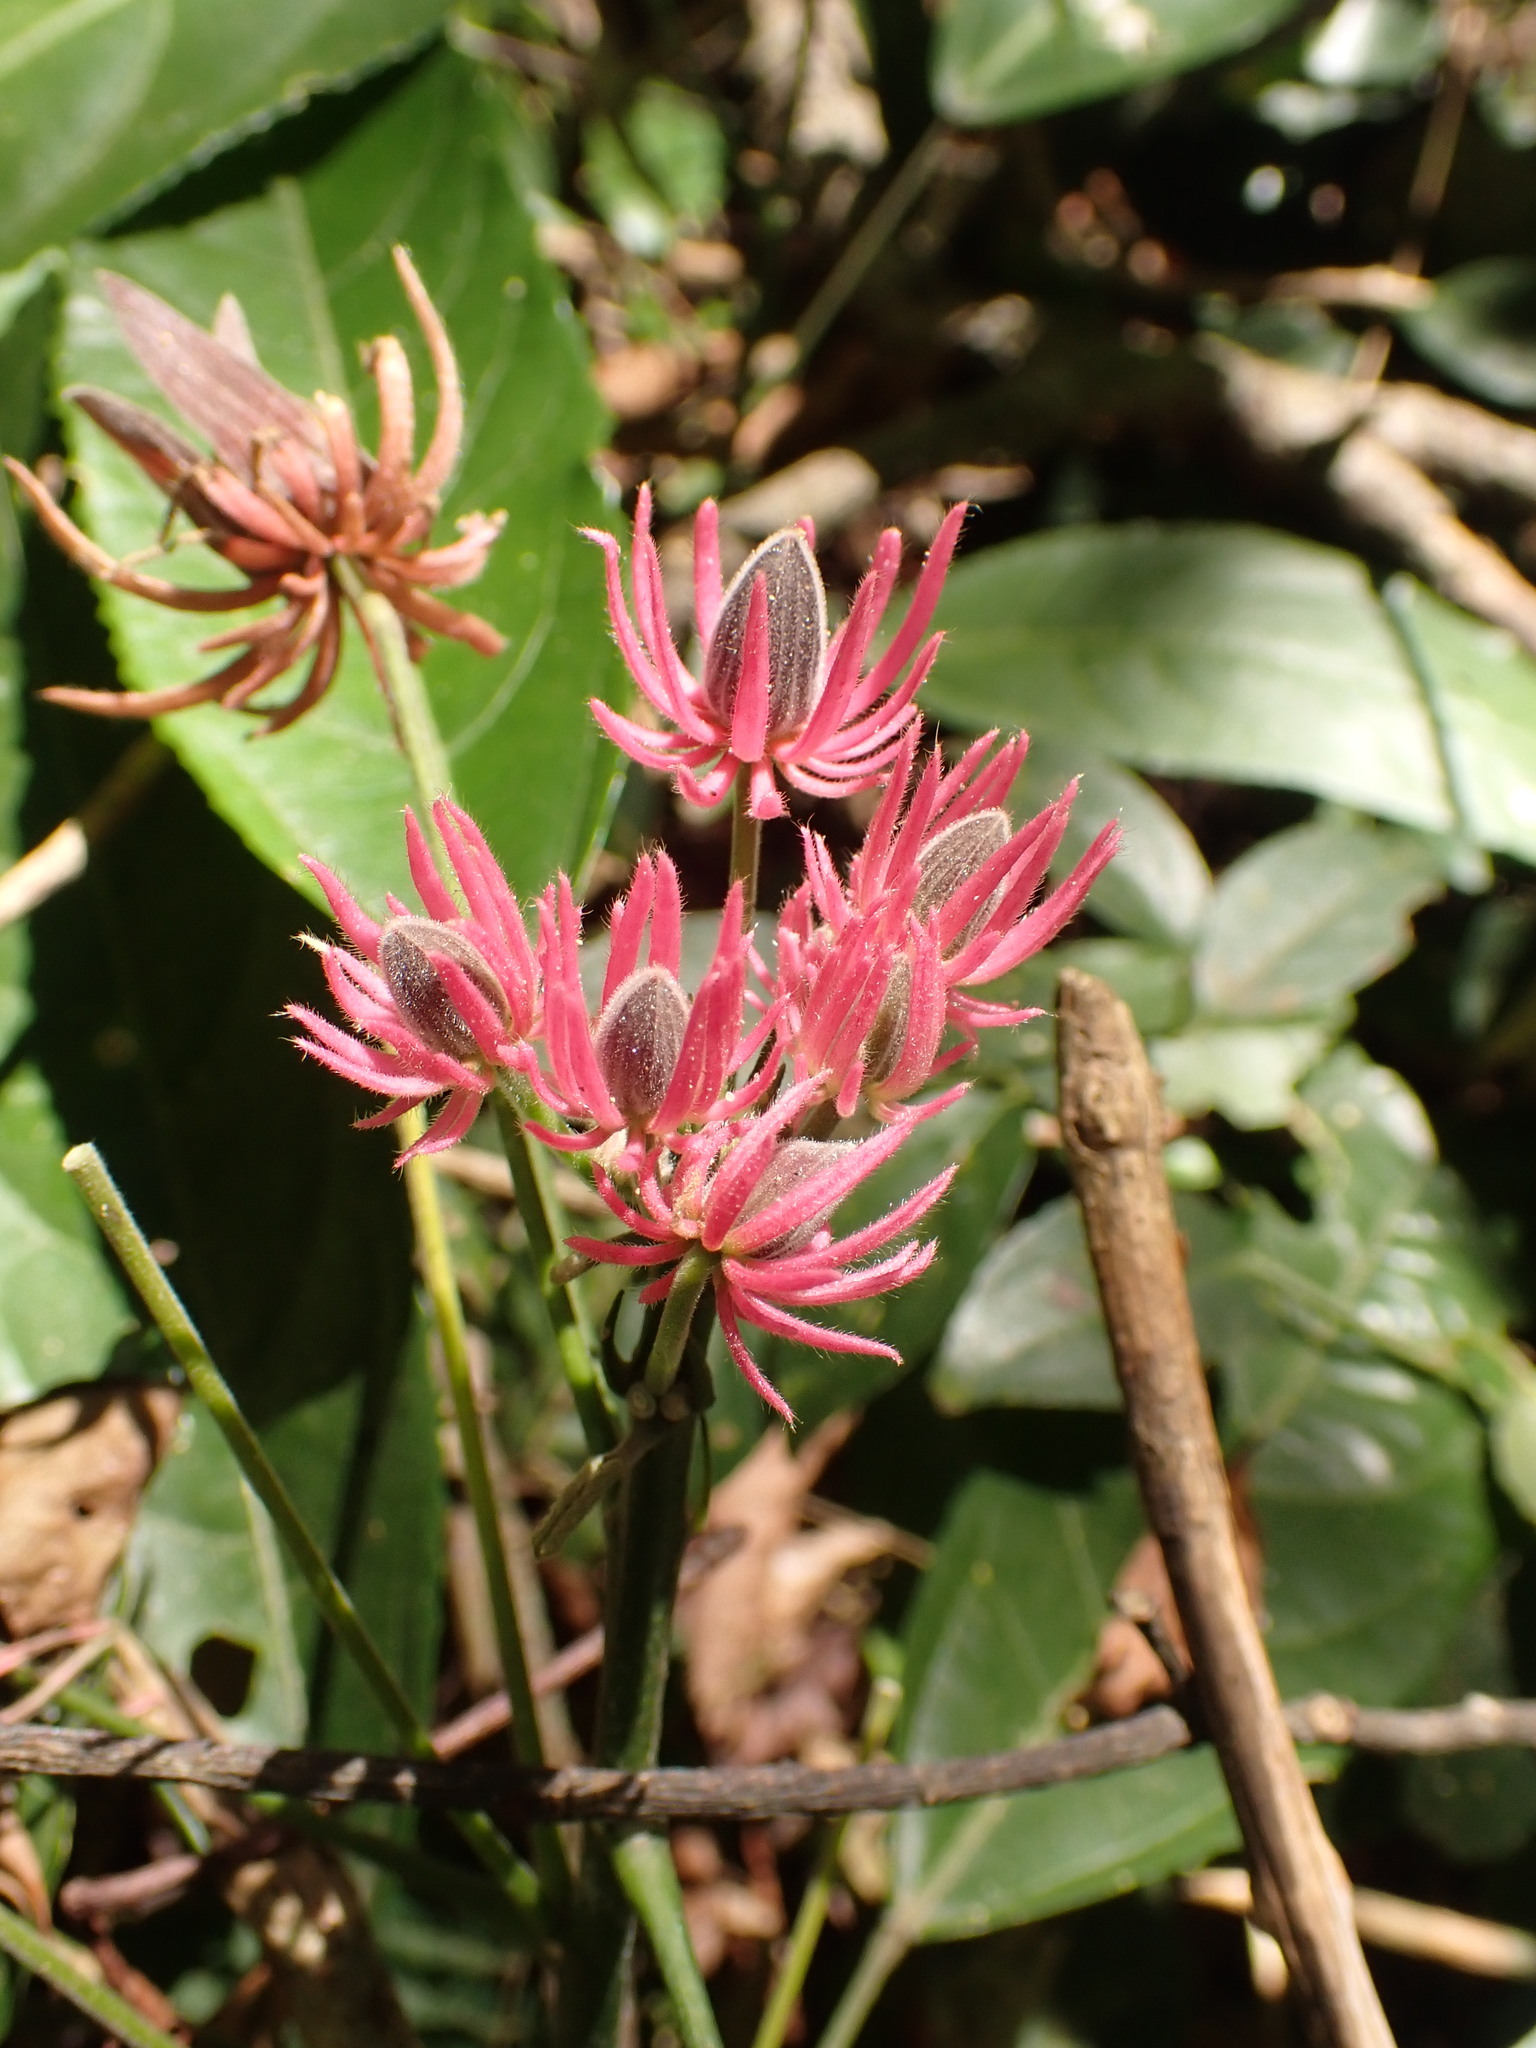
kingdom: Plantae
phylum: Tracheophyta
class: Magnoliopsida
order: Malvales
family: Malvaceae
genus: Pavonia
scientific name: Pavonia multiflora
